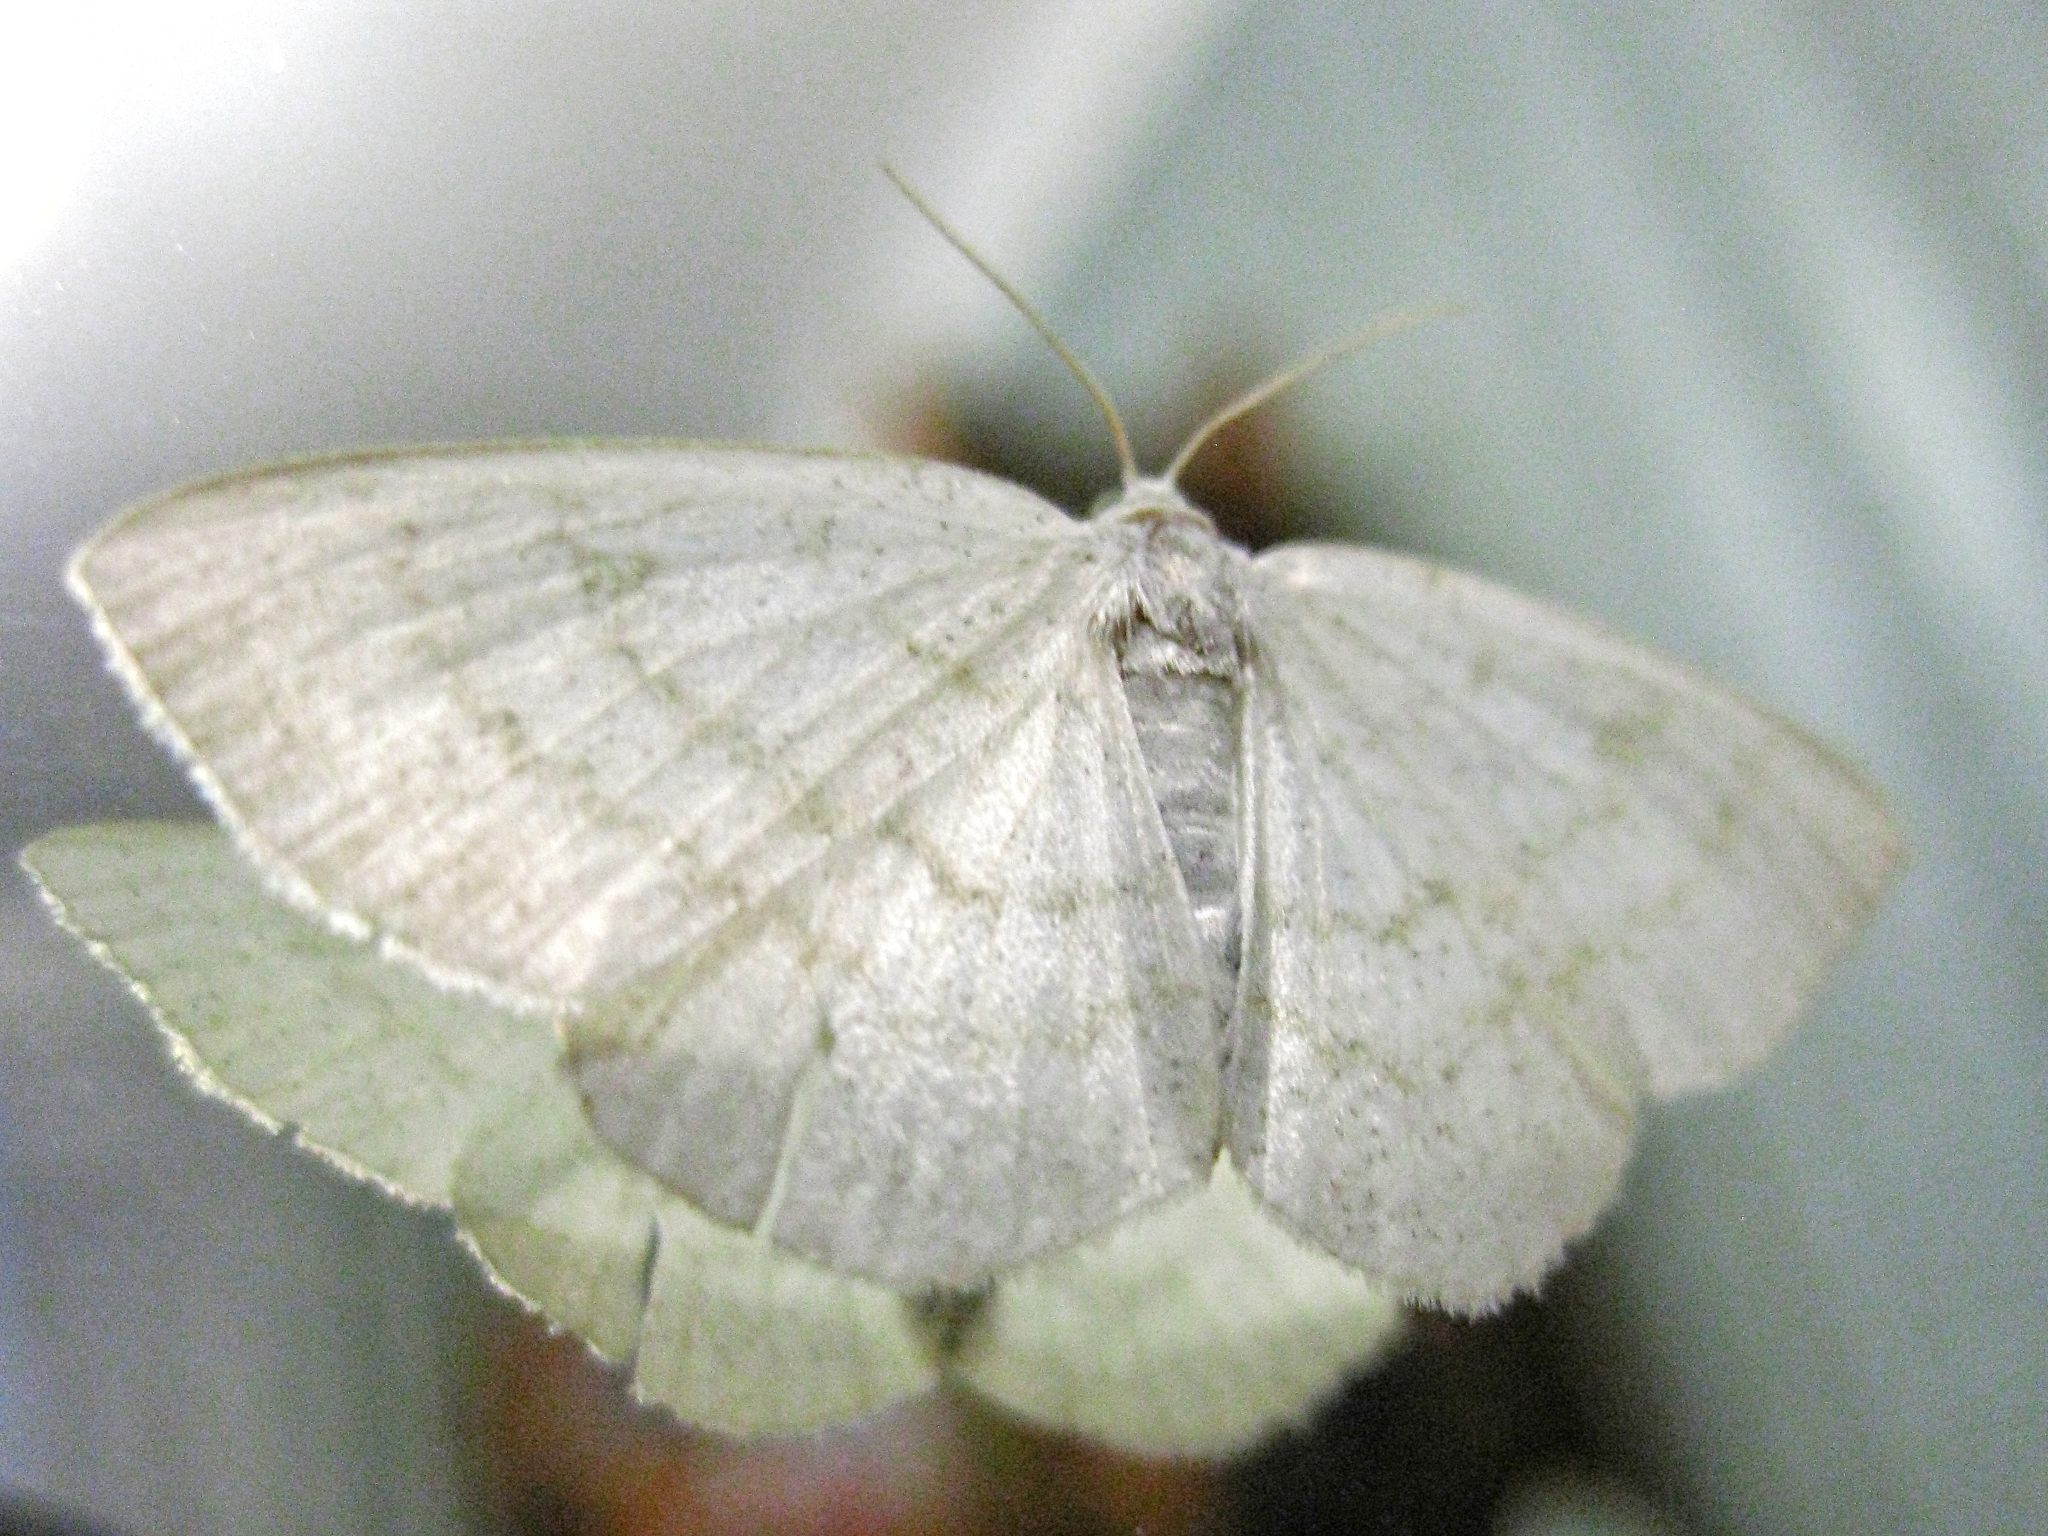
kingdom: Animalia
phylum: Arthropoda
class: Insecta
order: Lepidoptera
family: Geometridae
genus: Cabera
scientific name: Cabera exanthemata
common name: Common wave
